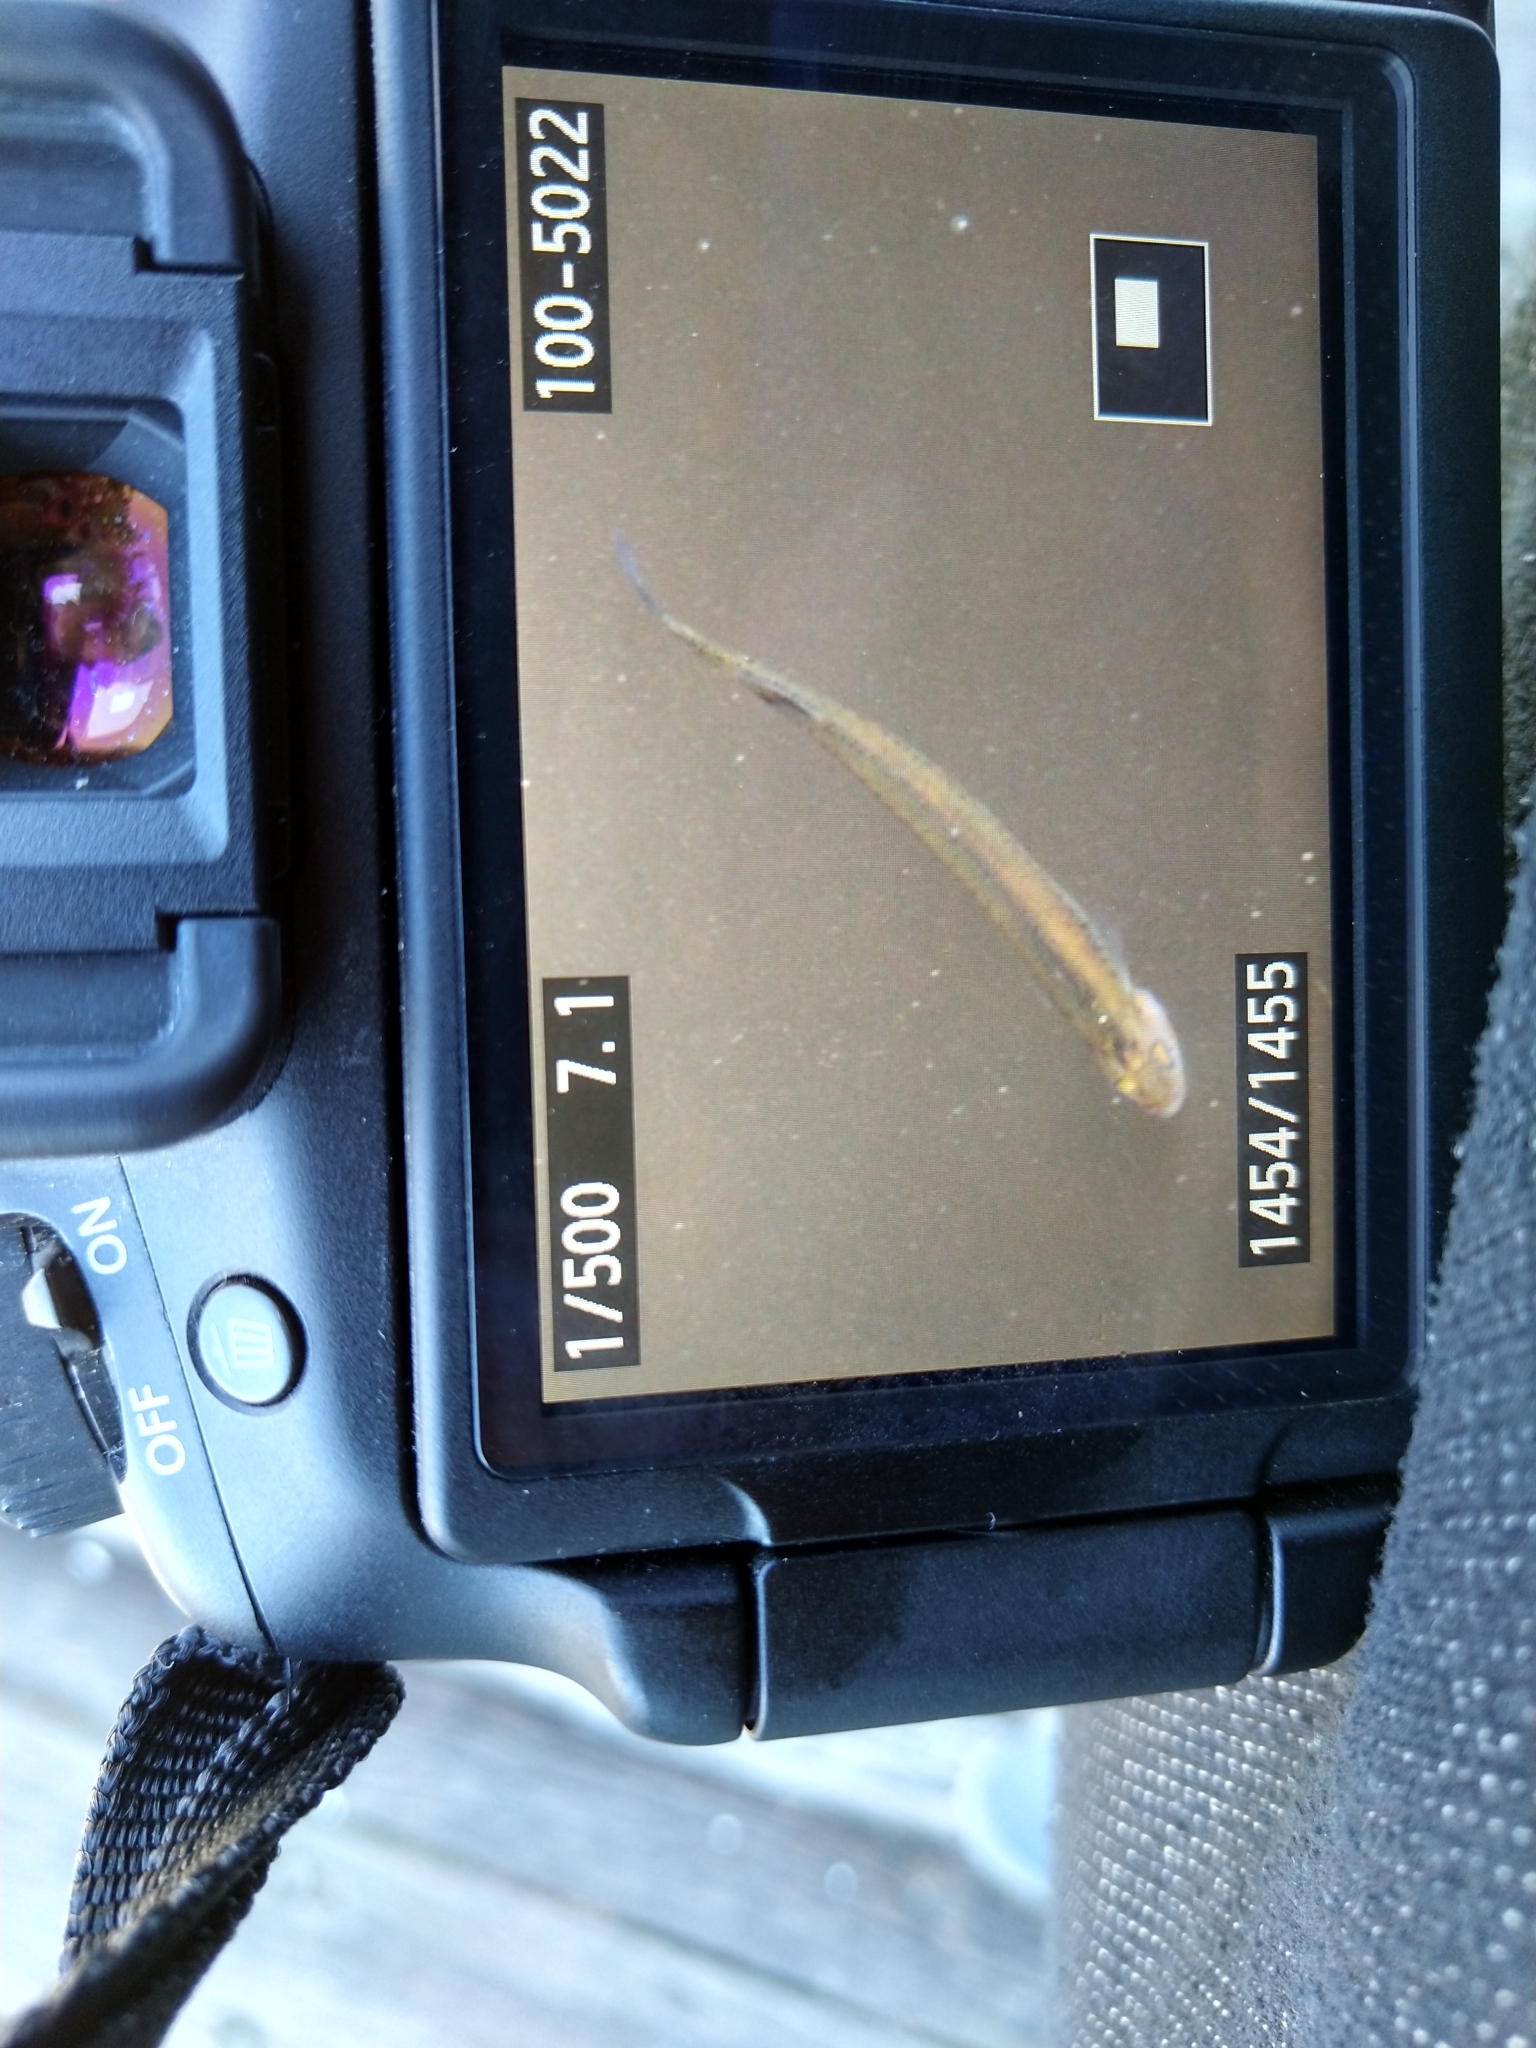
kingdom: Animalia
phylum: Chordata
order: Osmeriformes
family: Galaxiidae
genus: Galaxias
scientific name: Galaxias maculatus
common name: Common galaxias
